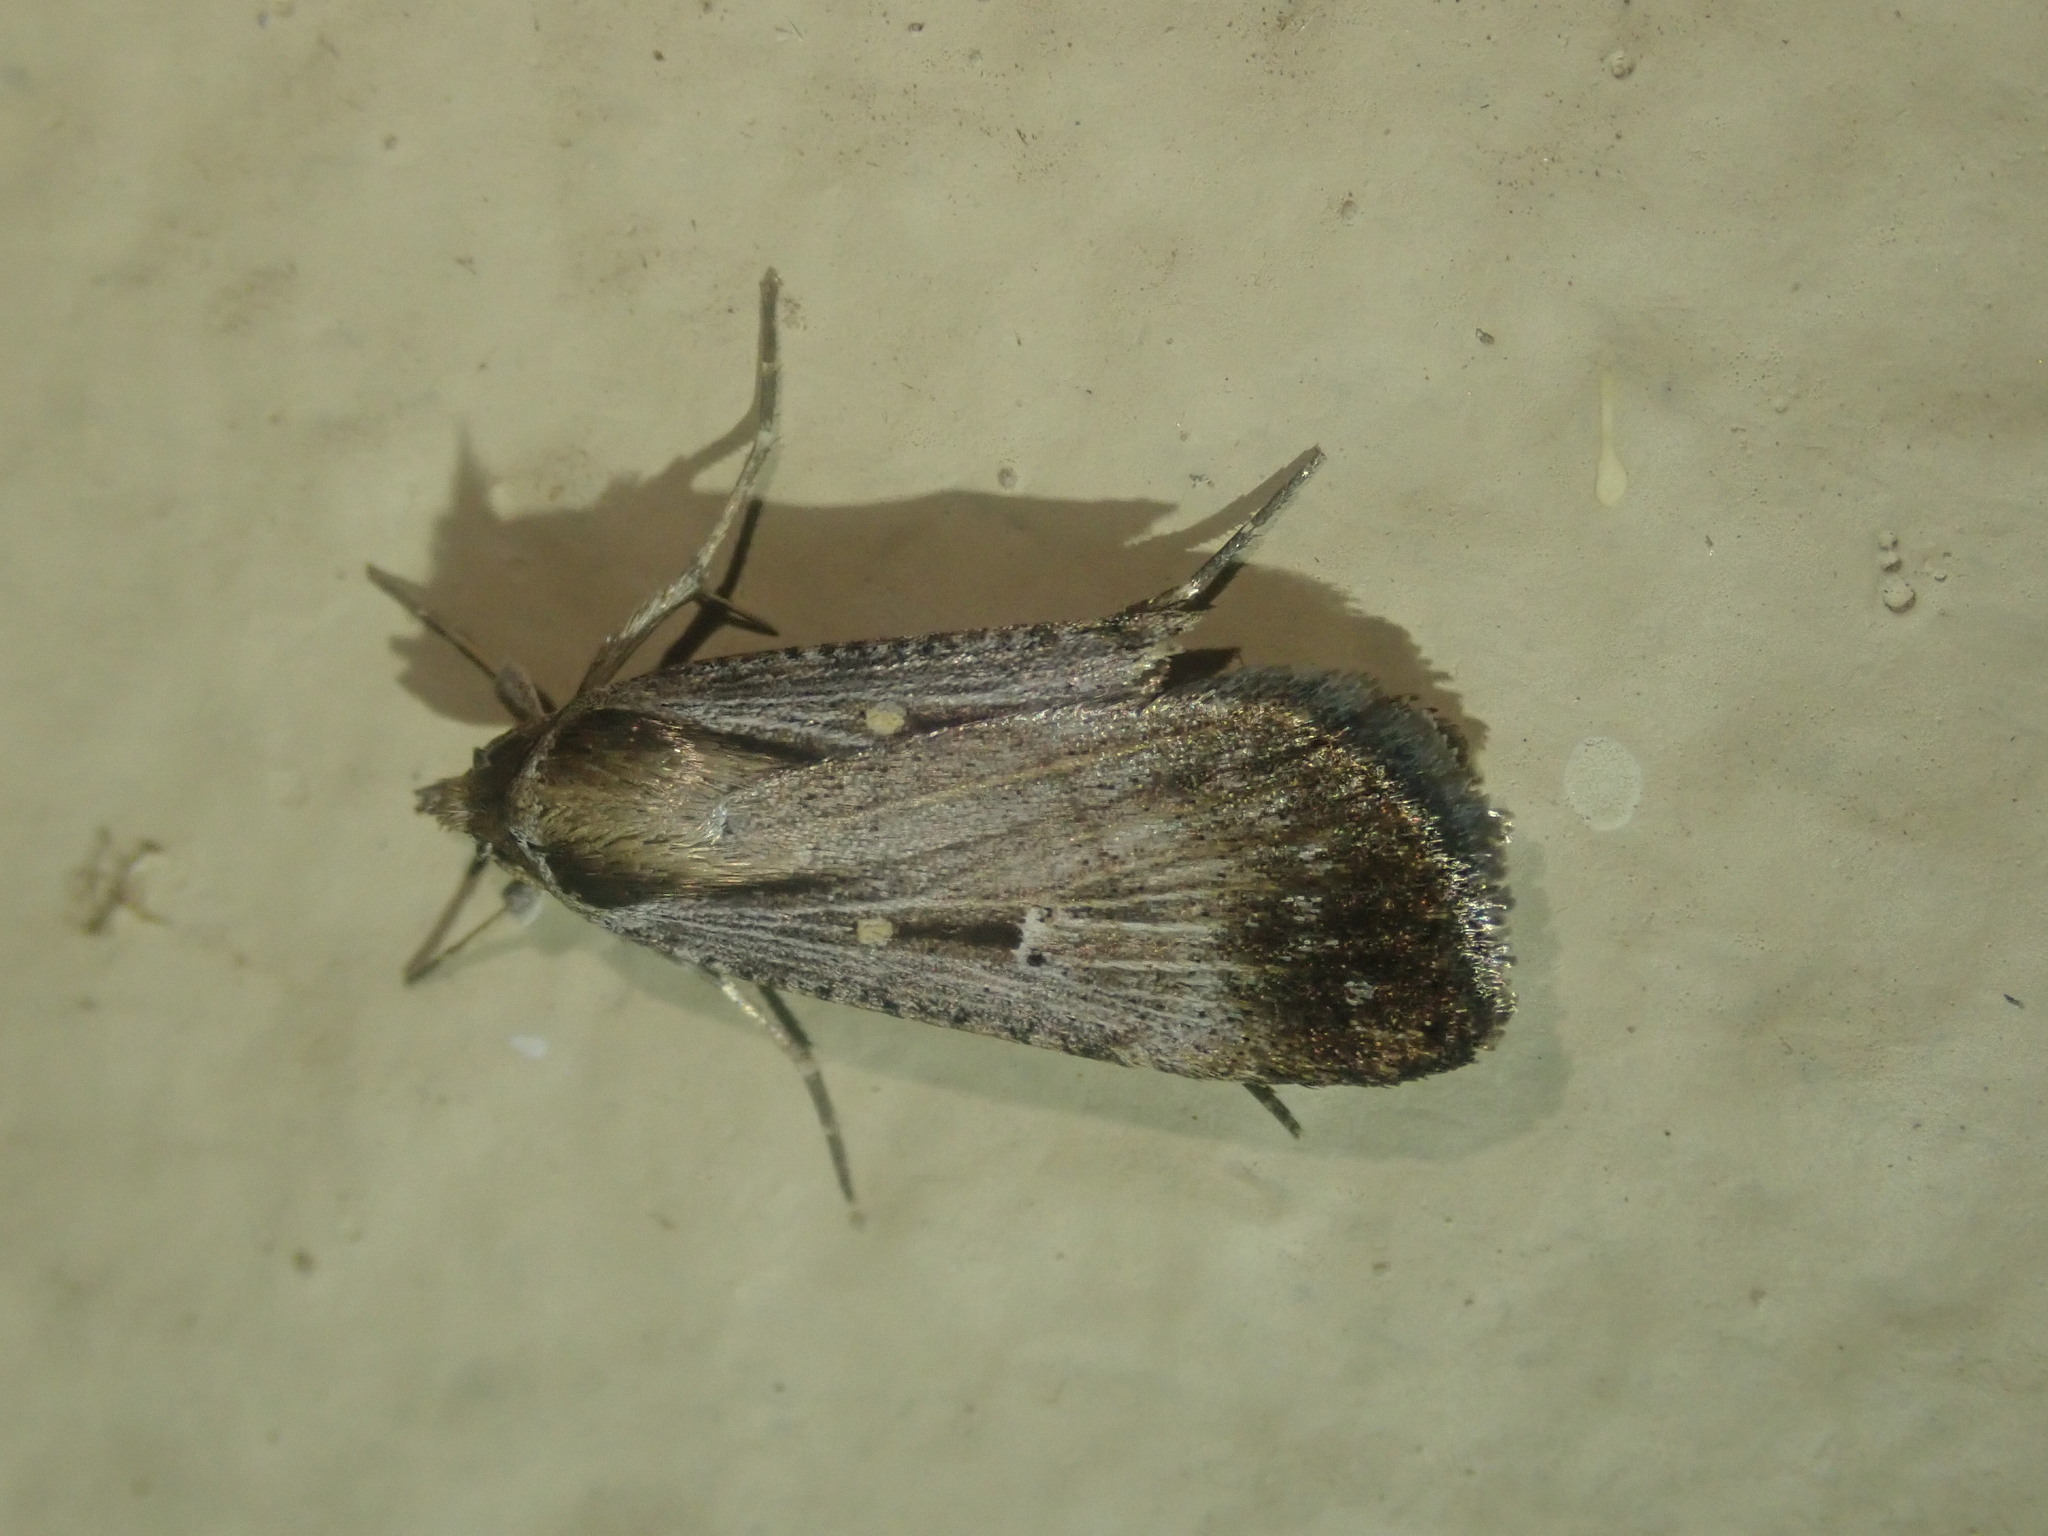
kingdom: Animalia
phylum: Arthropoda
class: Insecta
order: Lepidoptera
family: Noctuidae
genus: Tathorhynchus
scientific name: Tathorhynchus exsiccata
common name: Levant blackneck moth
